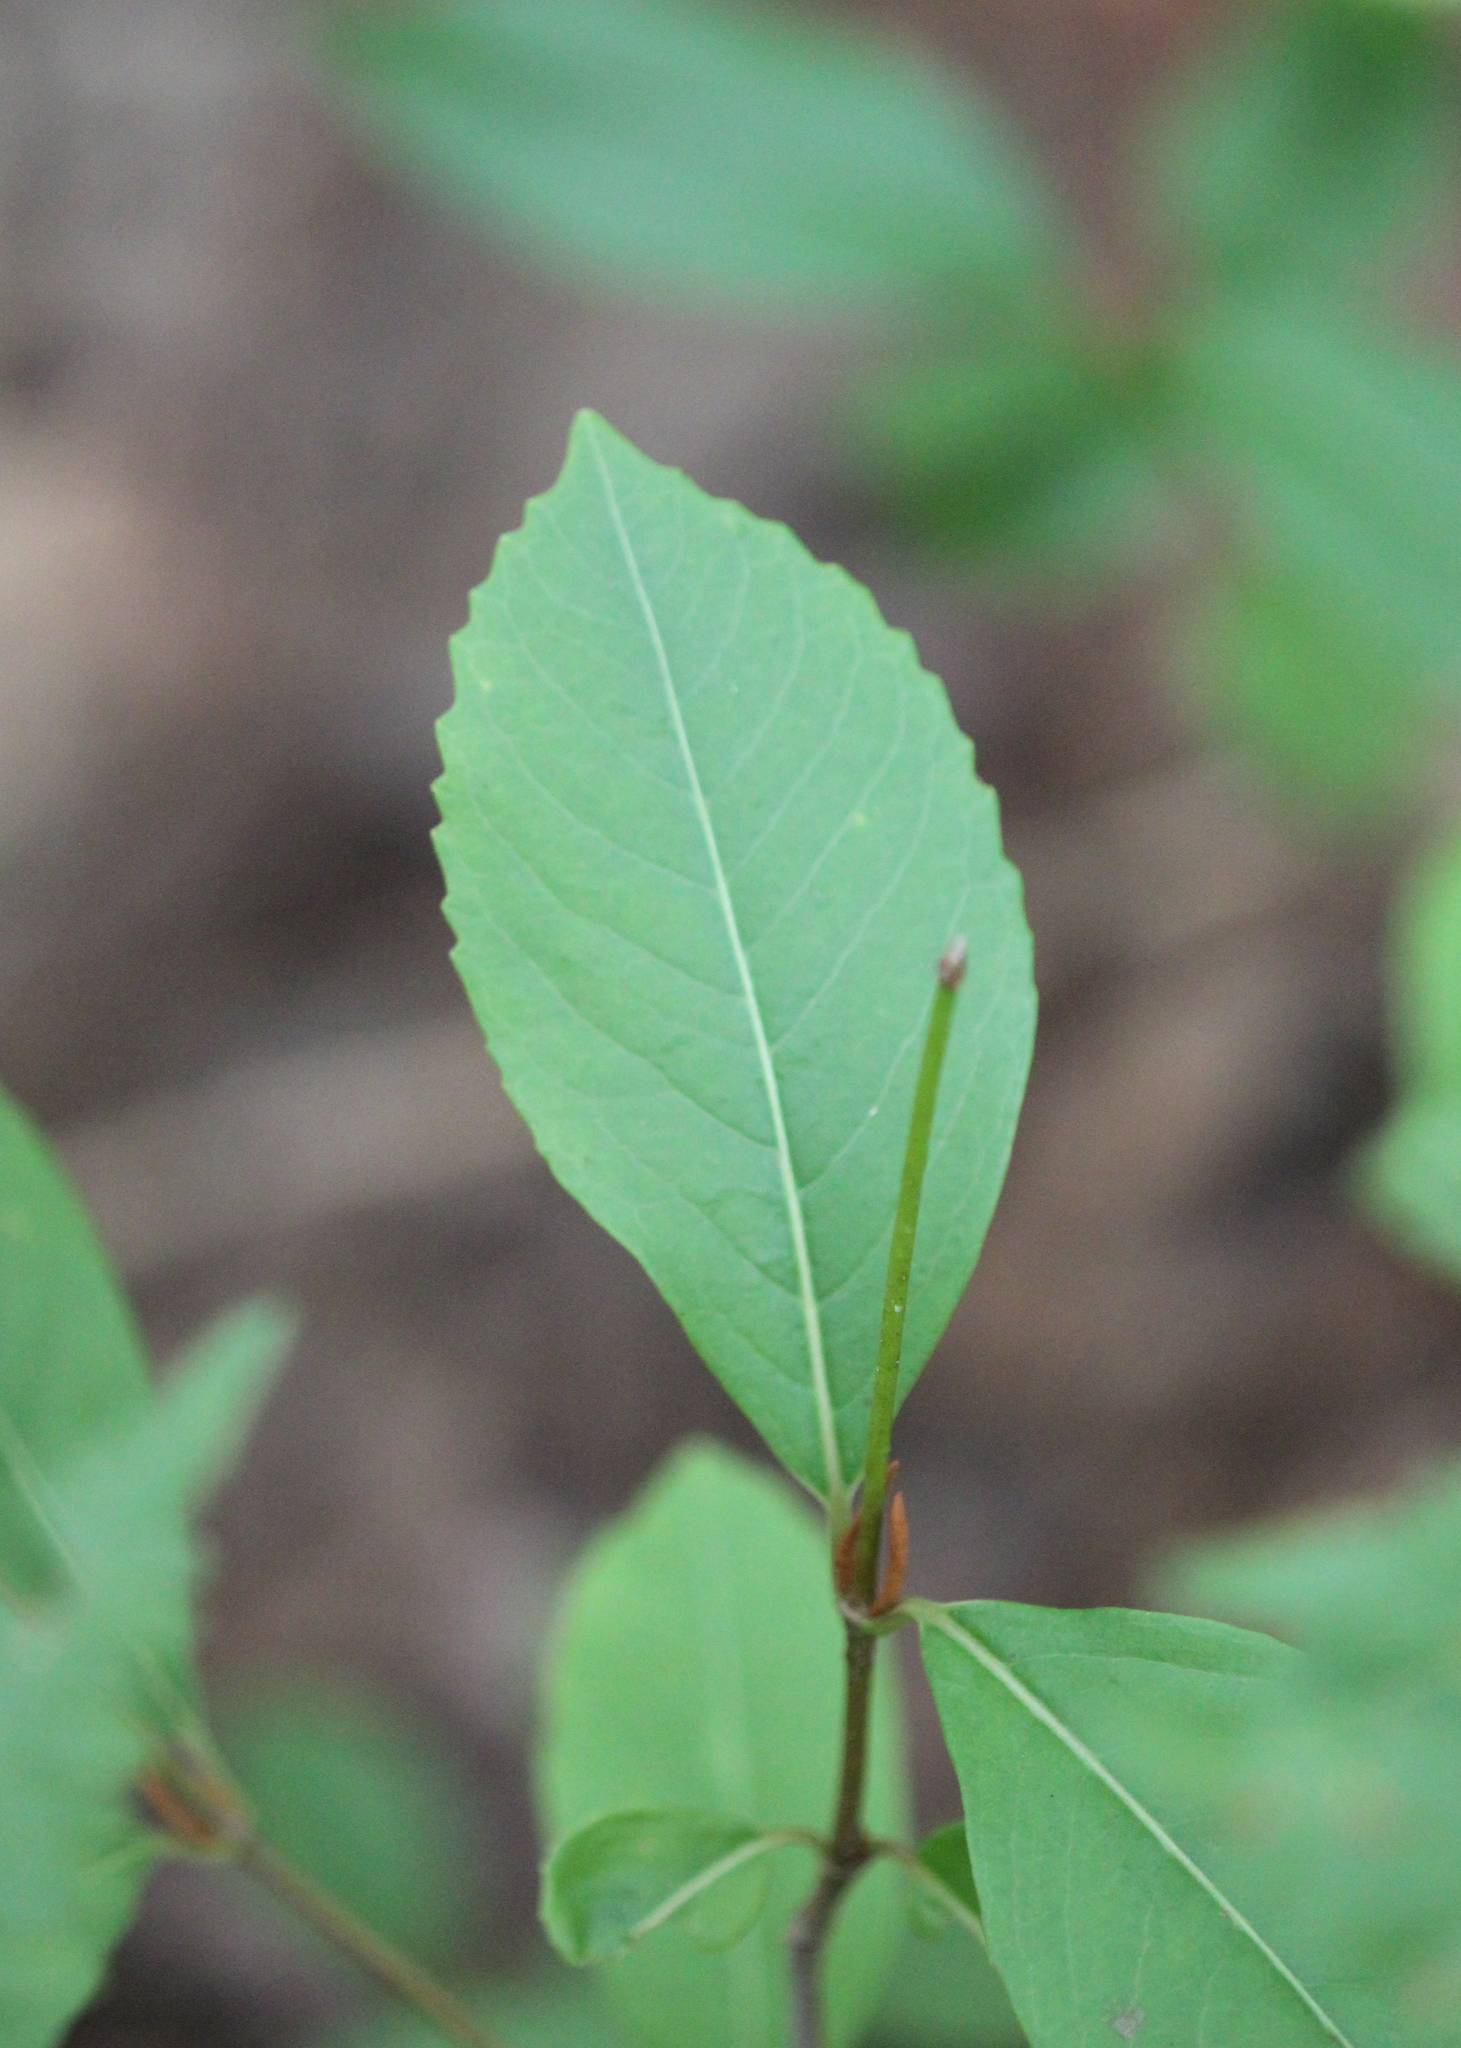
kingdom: Plantae
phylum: Tracheophyta
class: Magnoliopsida
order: Dipsacales
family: Viburnaceae
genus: Viburnum
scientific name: Viburnum cassinoides
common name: Swamp haw
